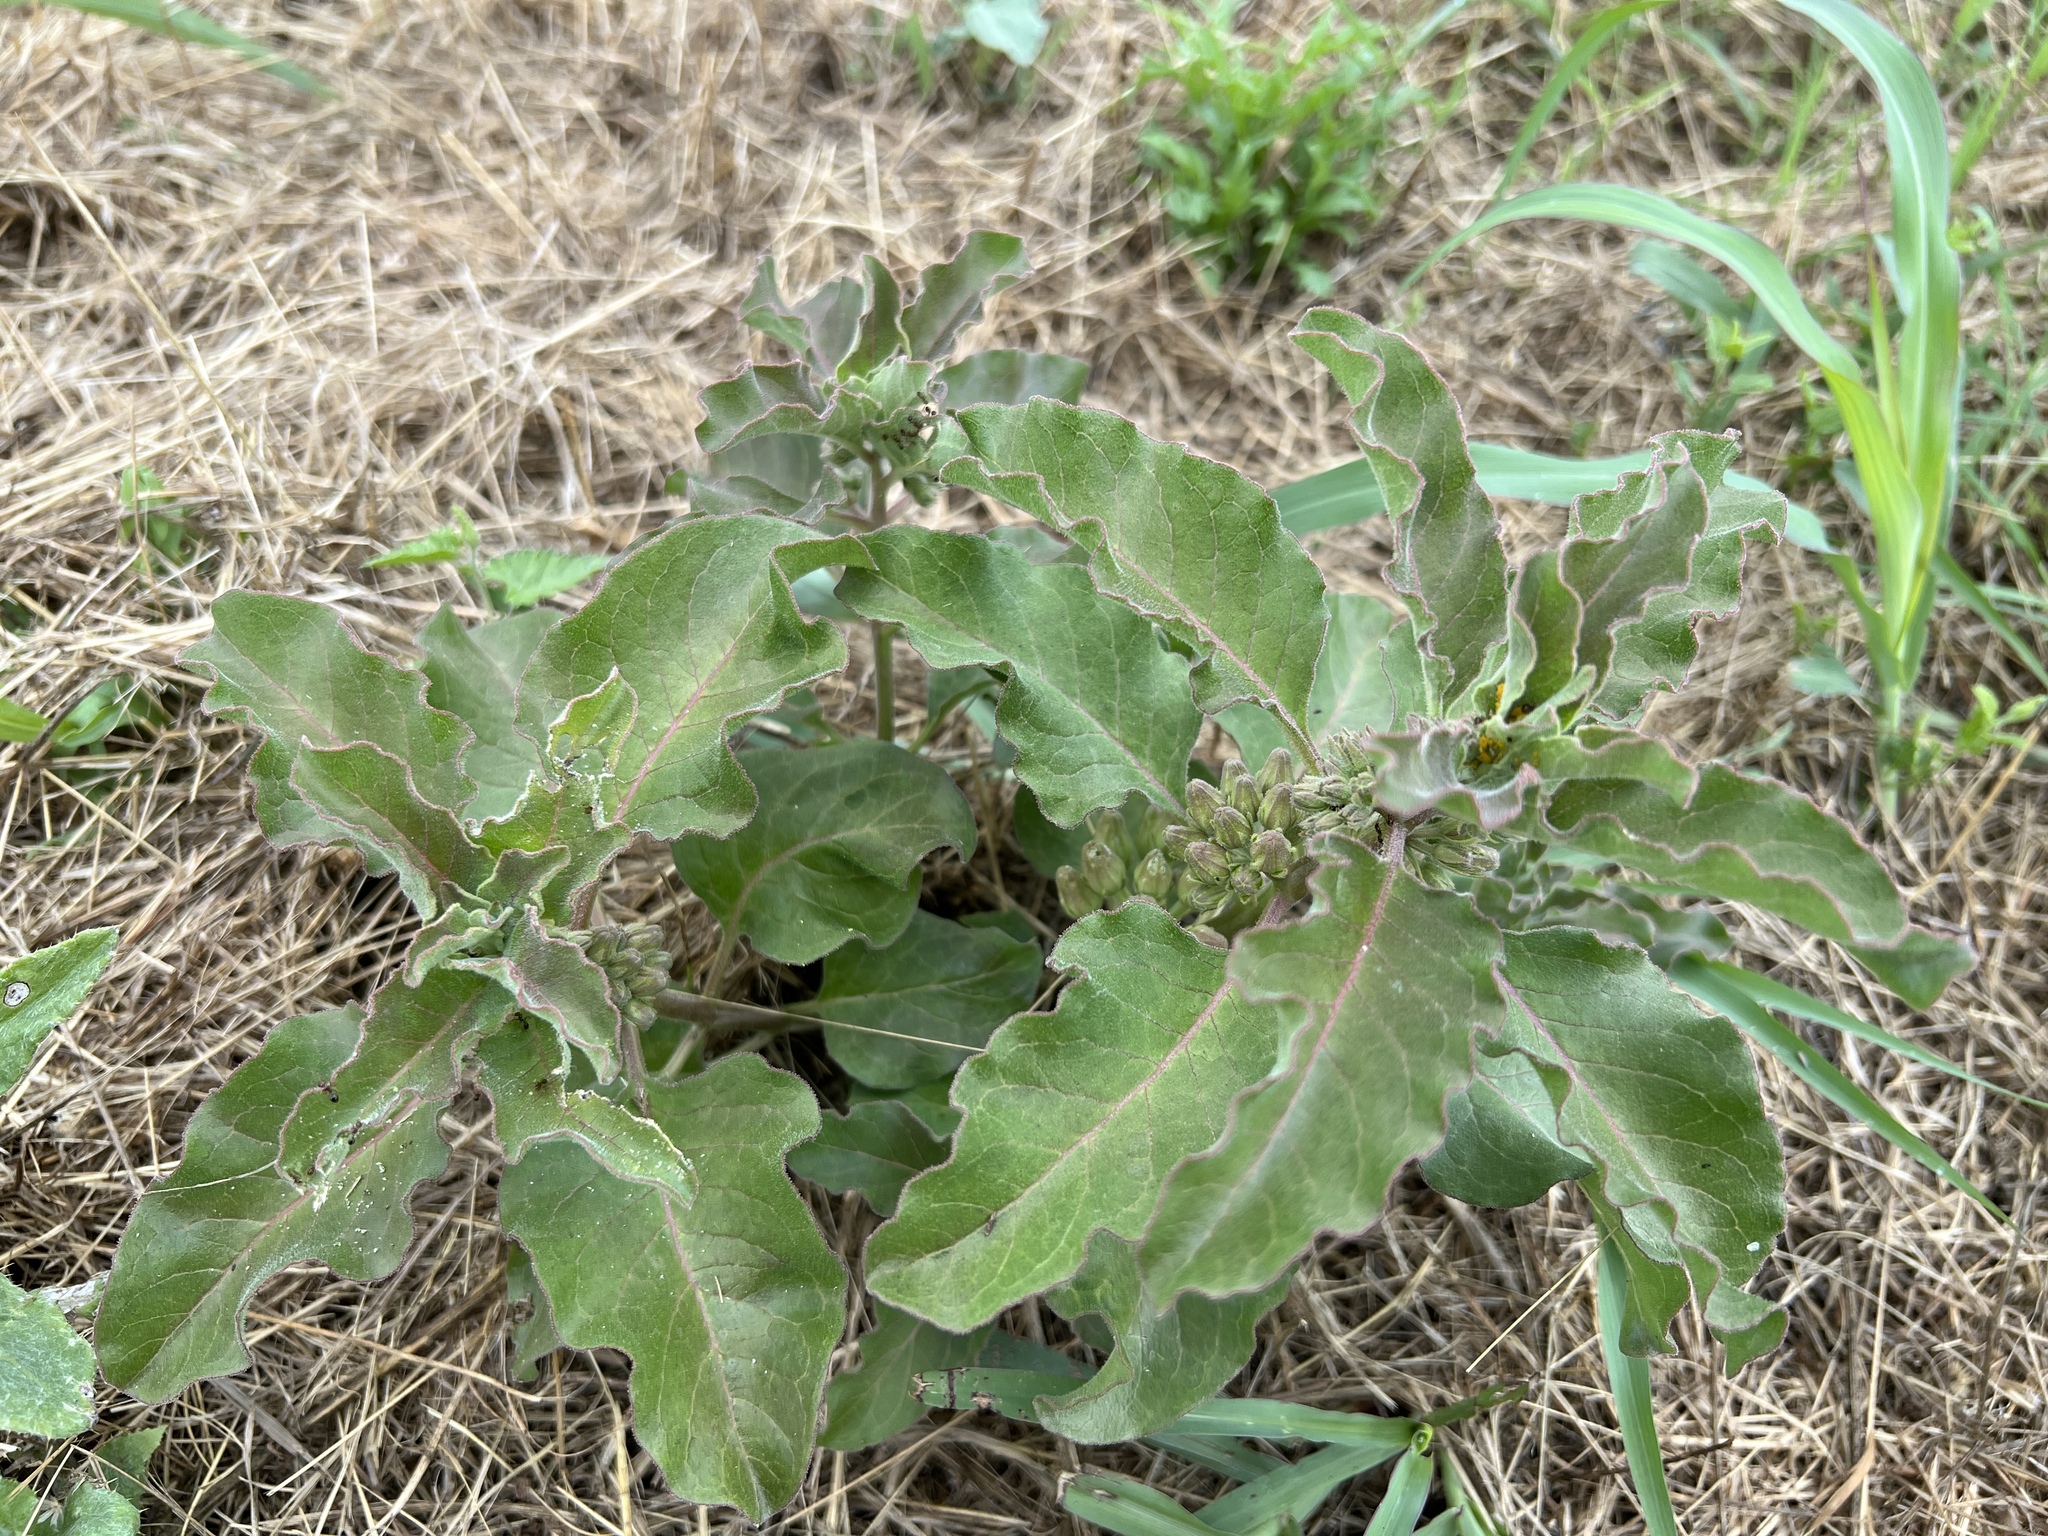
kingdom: Plantae
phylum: Tracheophyta
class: Magnoliopsida
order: Gentianales
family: Apocynaceae
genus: Asclepias
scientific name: Asclepias oenotheroides
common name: Zizotes milkweed
